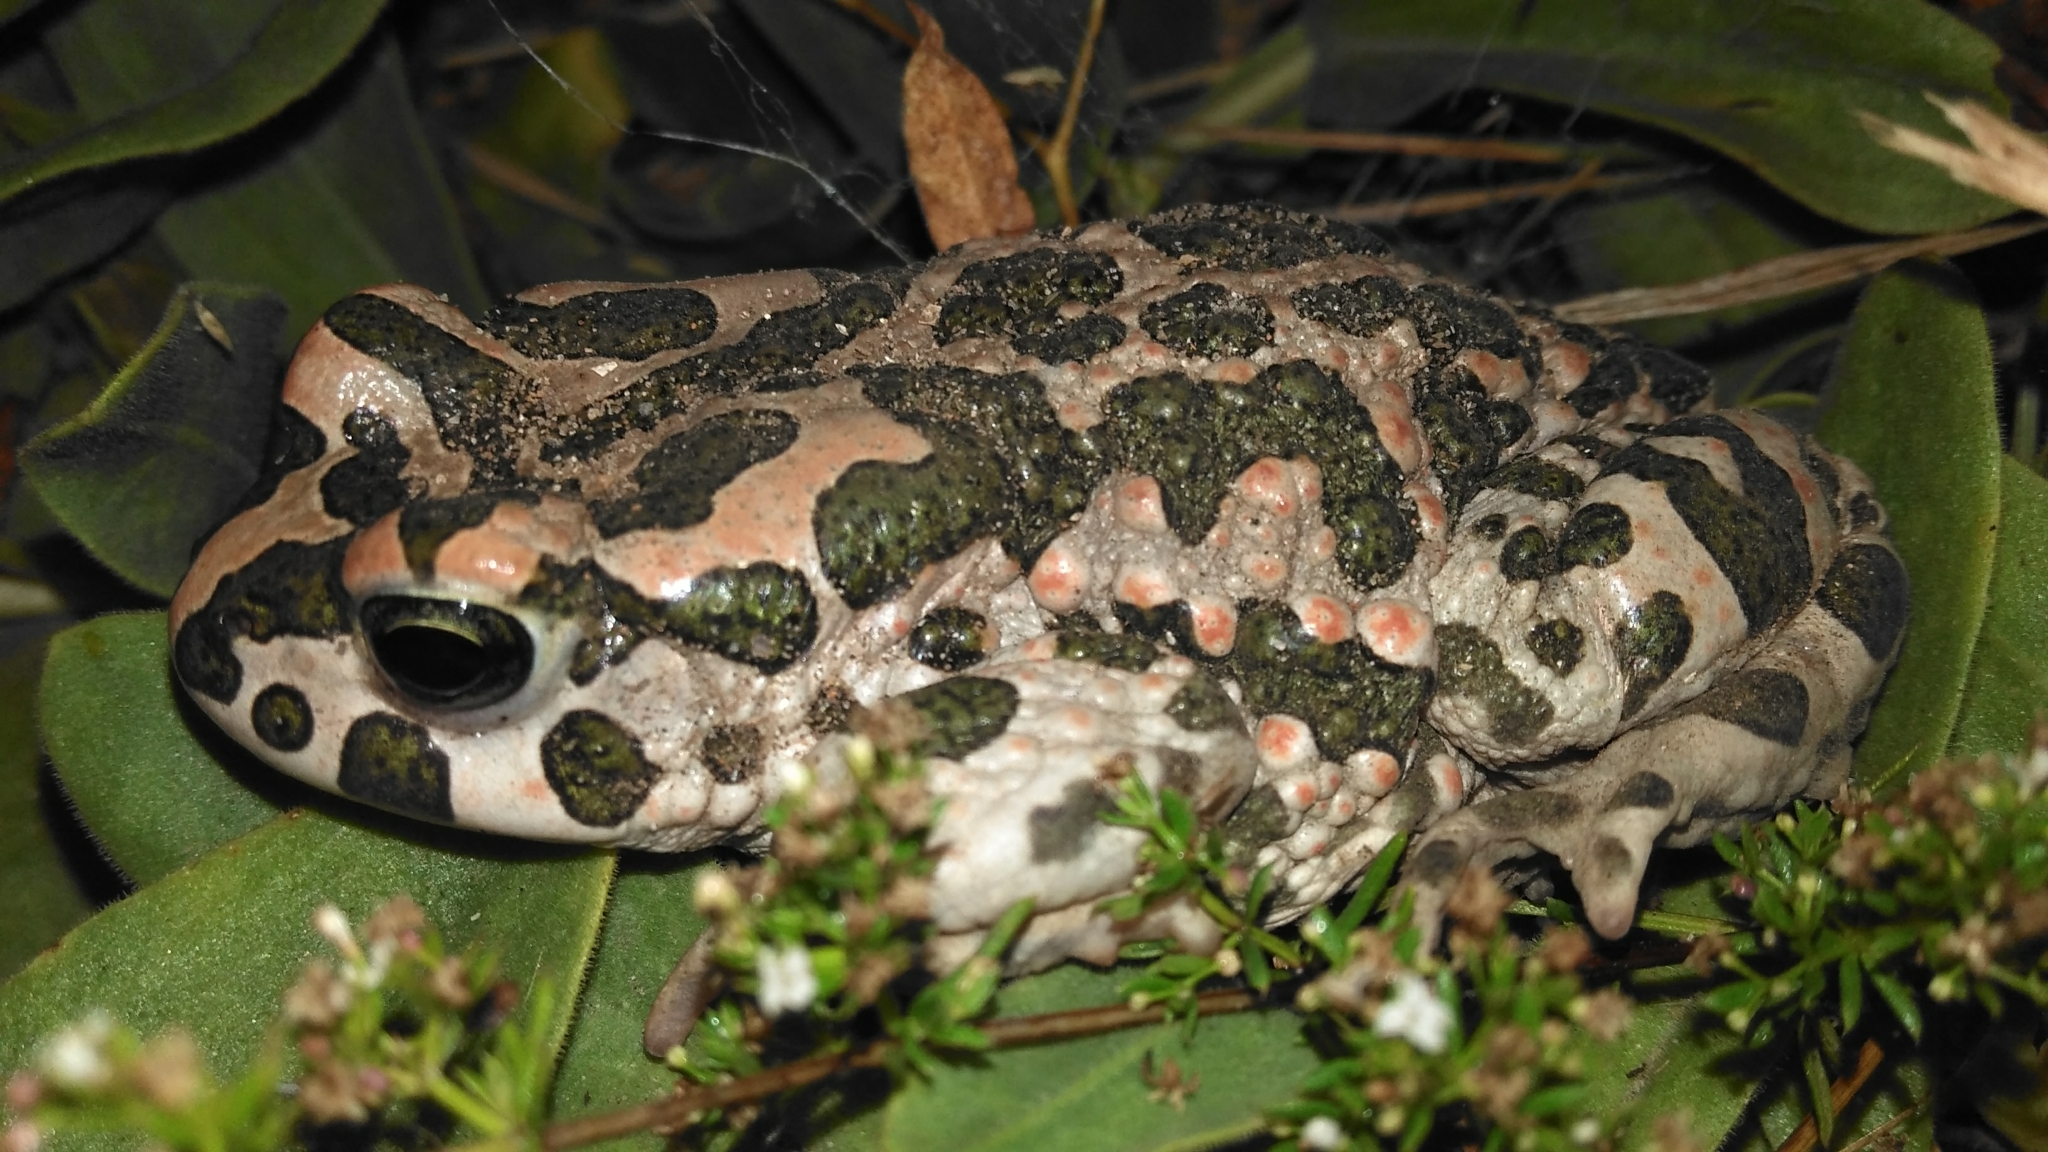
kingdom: Animalia
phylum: Chordata
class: Amphibia
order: Anura
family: Bufonidae
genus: Bufotes
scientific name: Bufotes viridis
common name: European green toad
